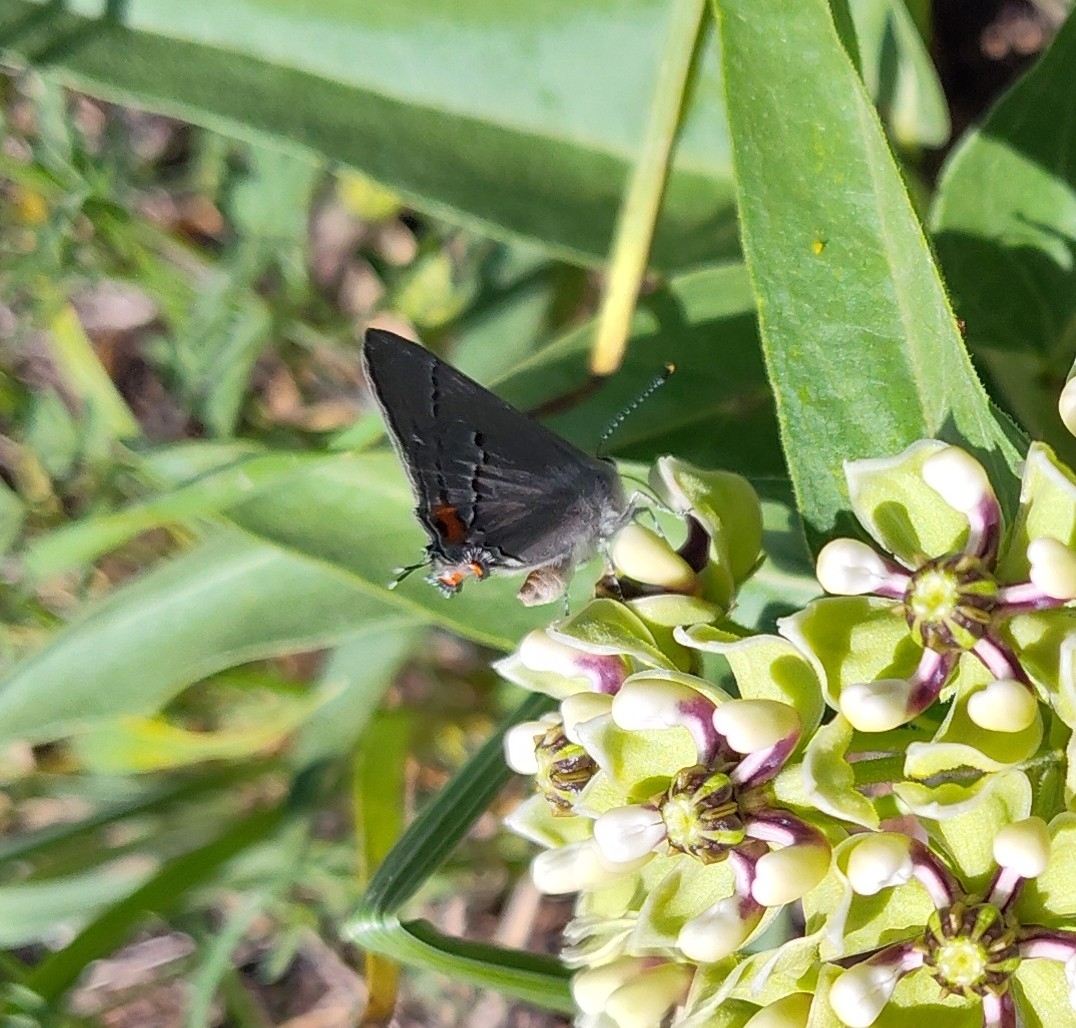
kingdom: Animalia
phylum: Arthropoda
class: Insecta
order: Lepidoptera
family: Lycaenidae
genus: Strymon
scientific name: Strymon melinus
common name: Gray hairstreak
